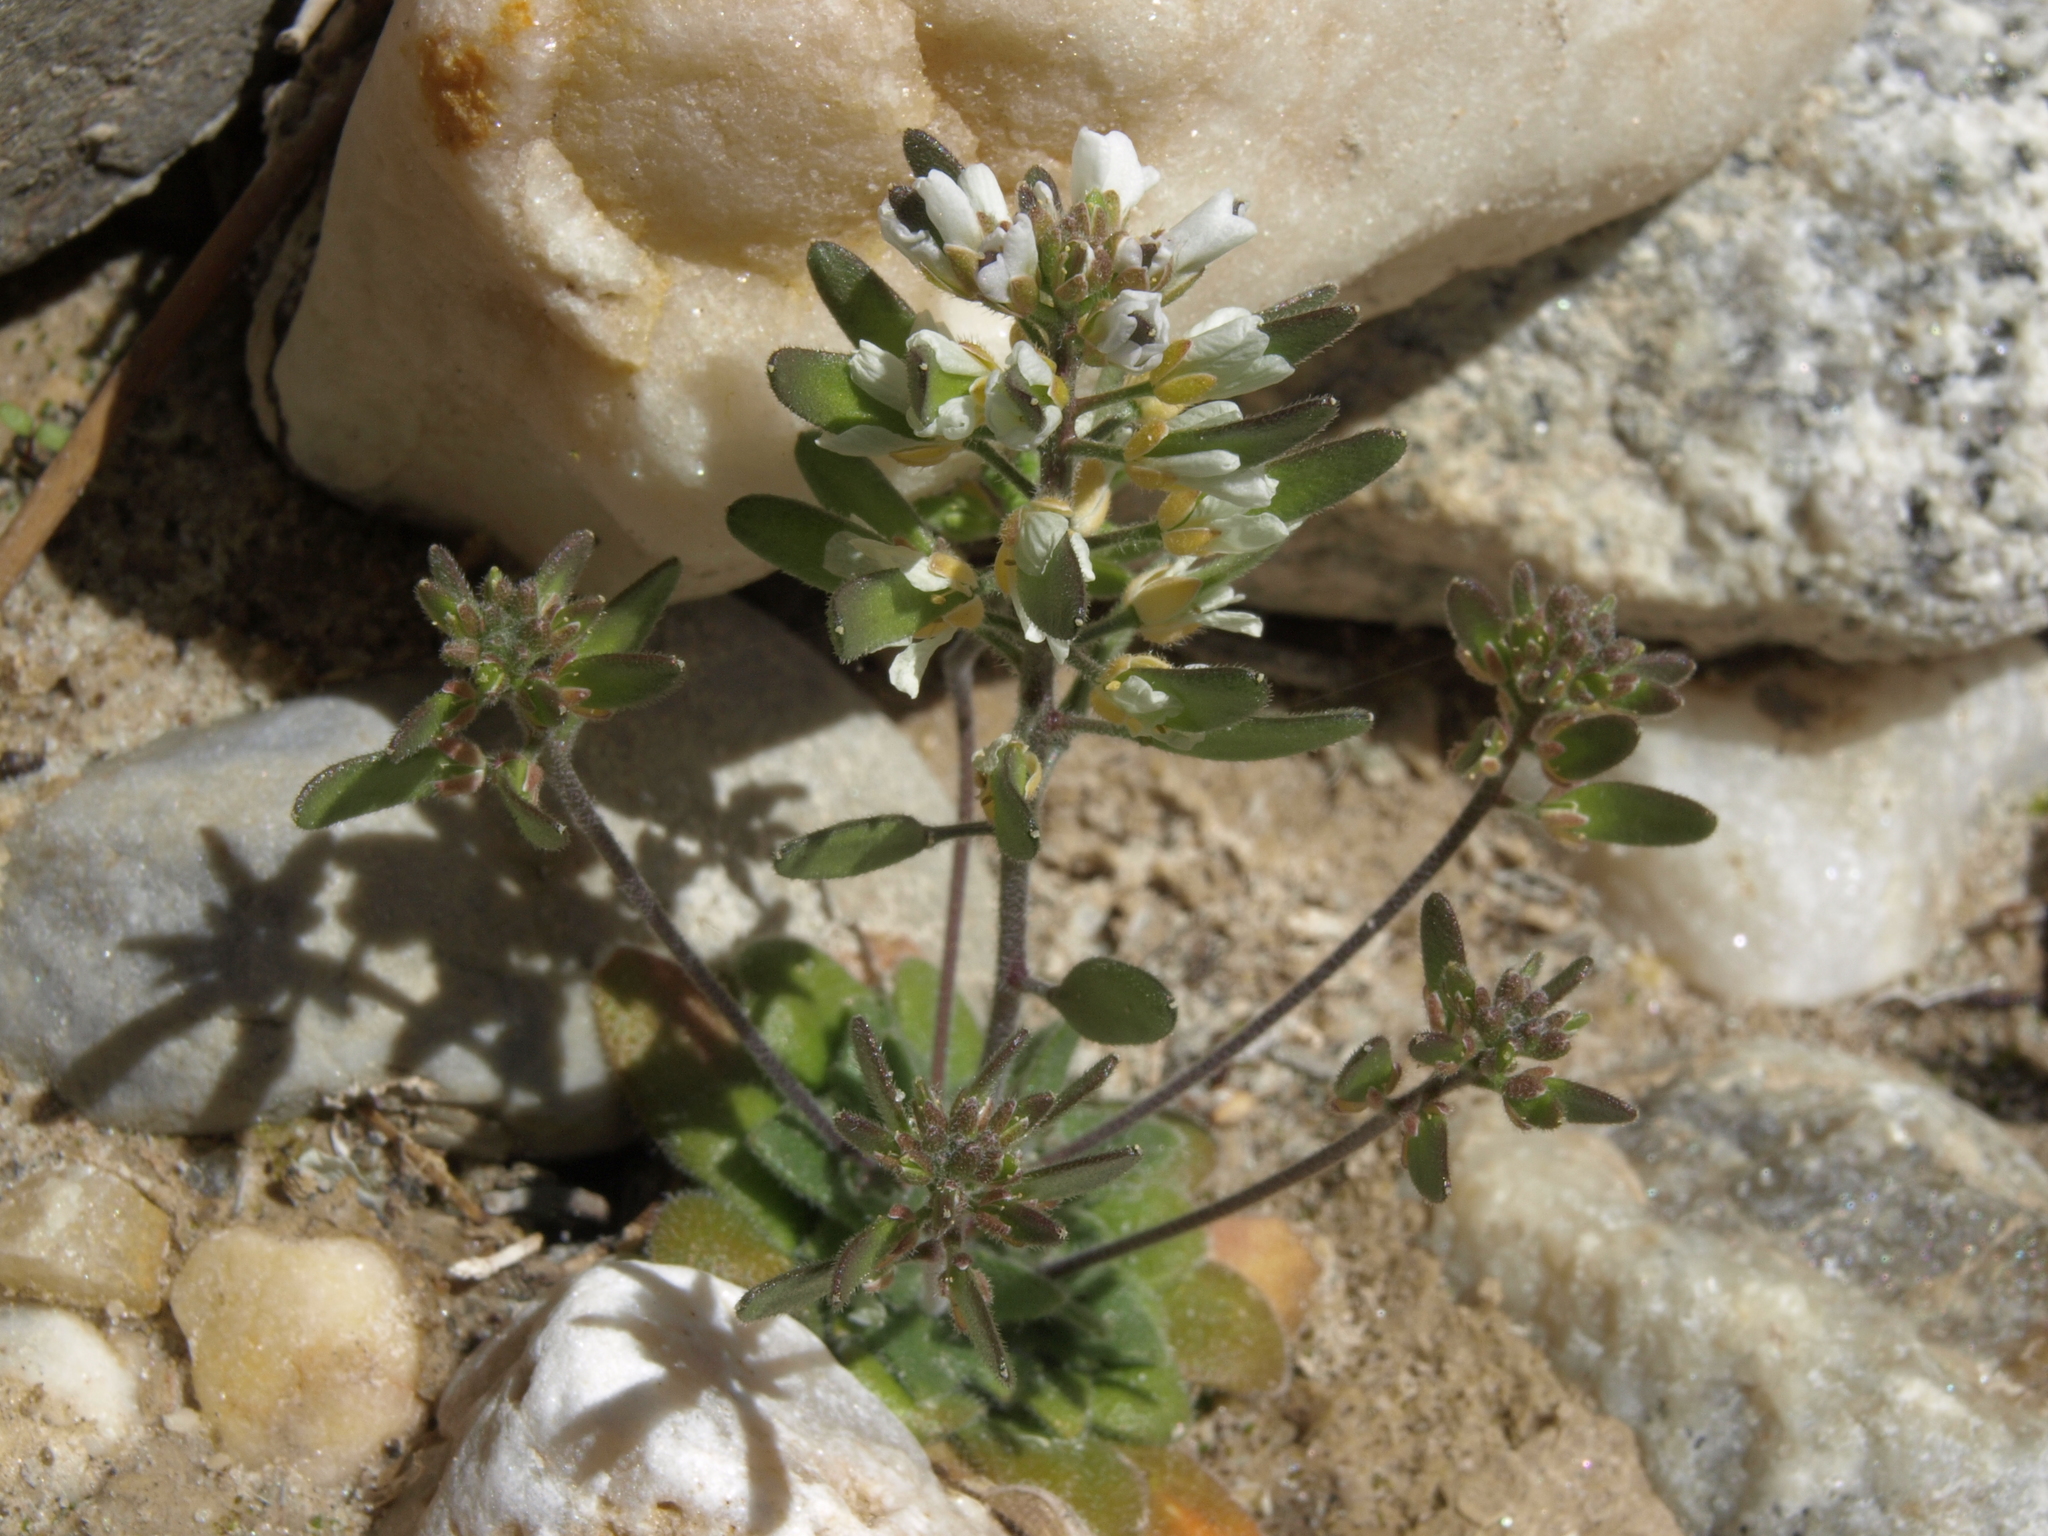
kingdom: Plantae
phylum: Tracheophyta
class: Magnoliopsida
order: Brassicales
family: Brassicaceae
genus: Tomostima
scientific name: Tomostima cuneifolia
